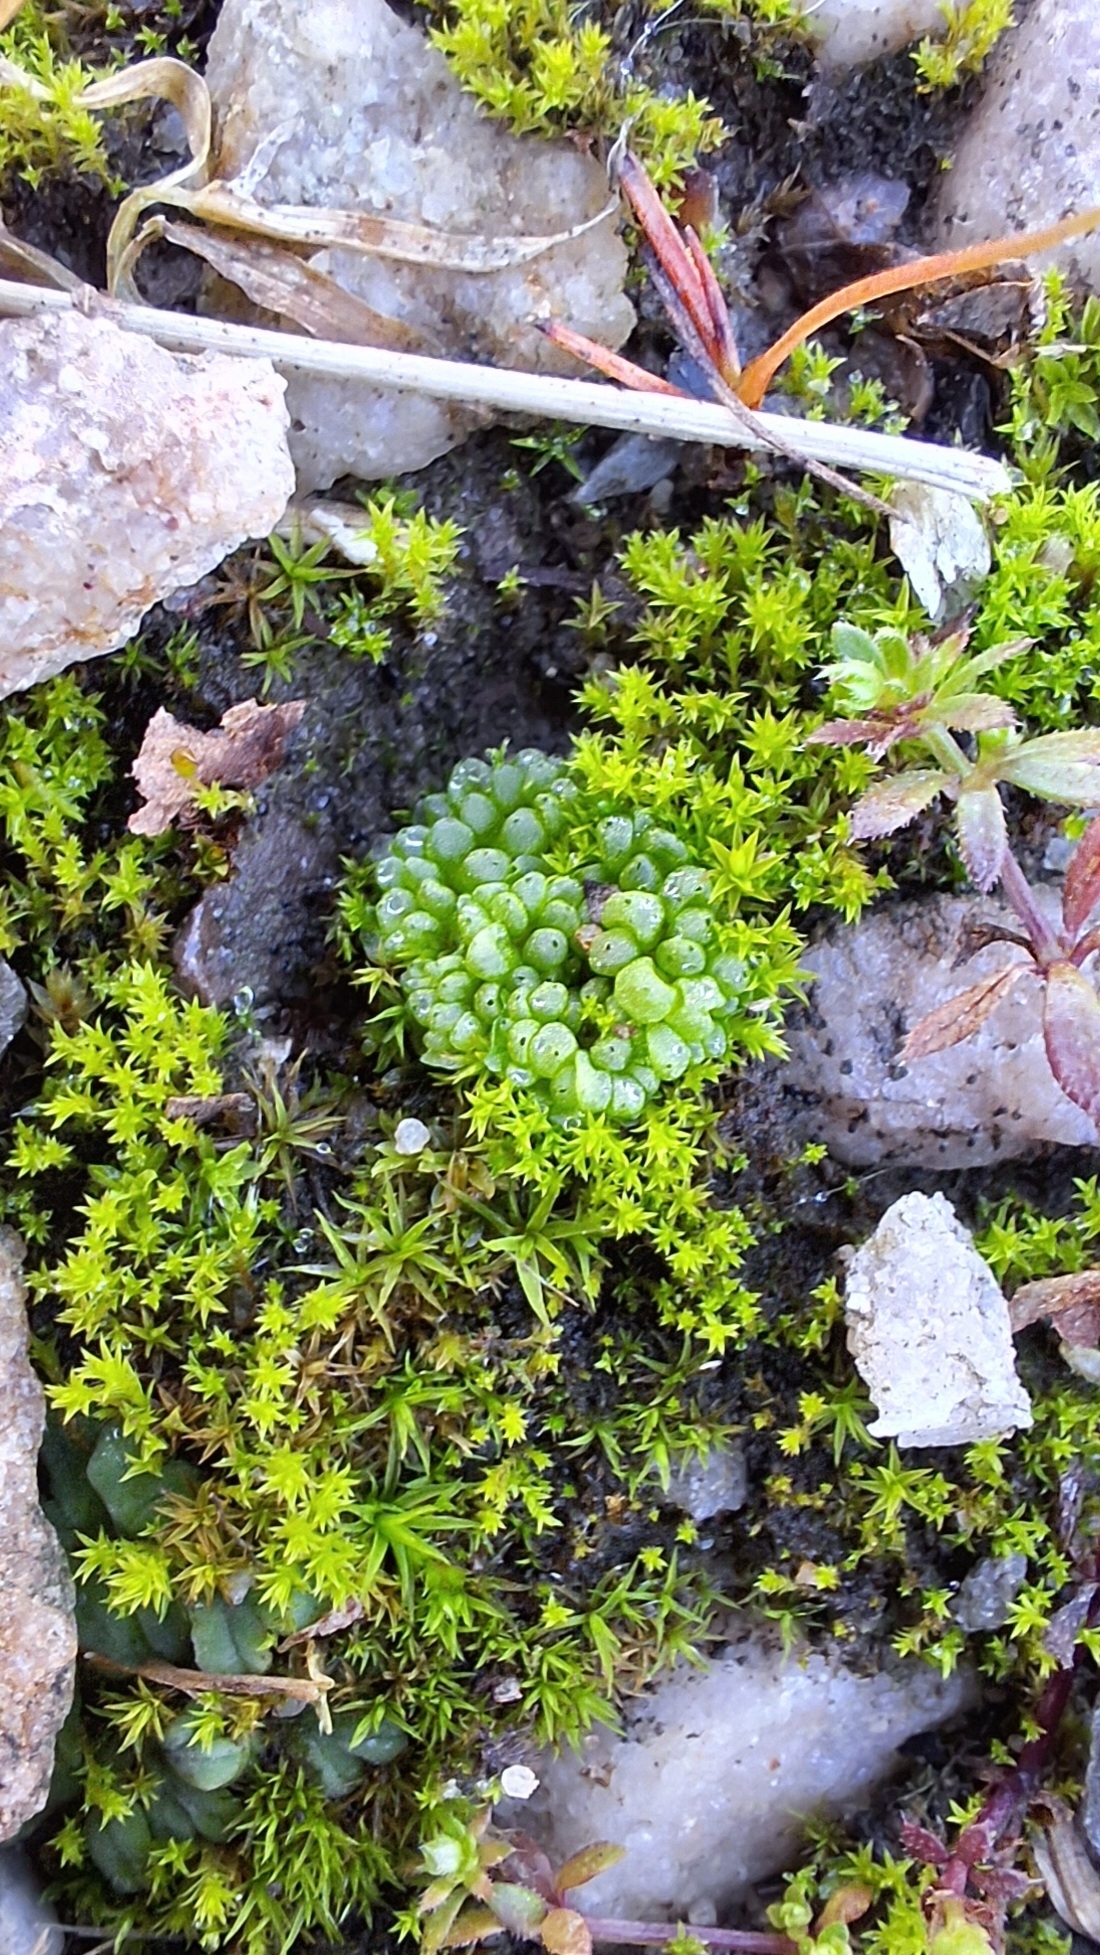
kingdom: Plantae
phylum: Marchantiophyta
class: Marchantiopsida
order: Sphaerocarpales
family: Sphaerocarpaceae
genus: Sphaerocarpos
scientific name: Sphaerocarpos texanus
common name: Texas balloonwort
